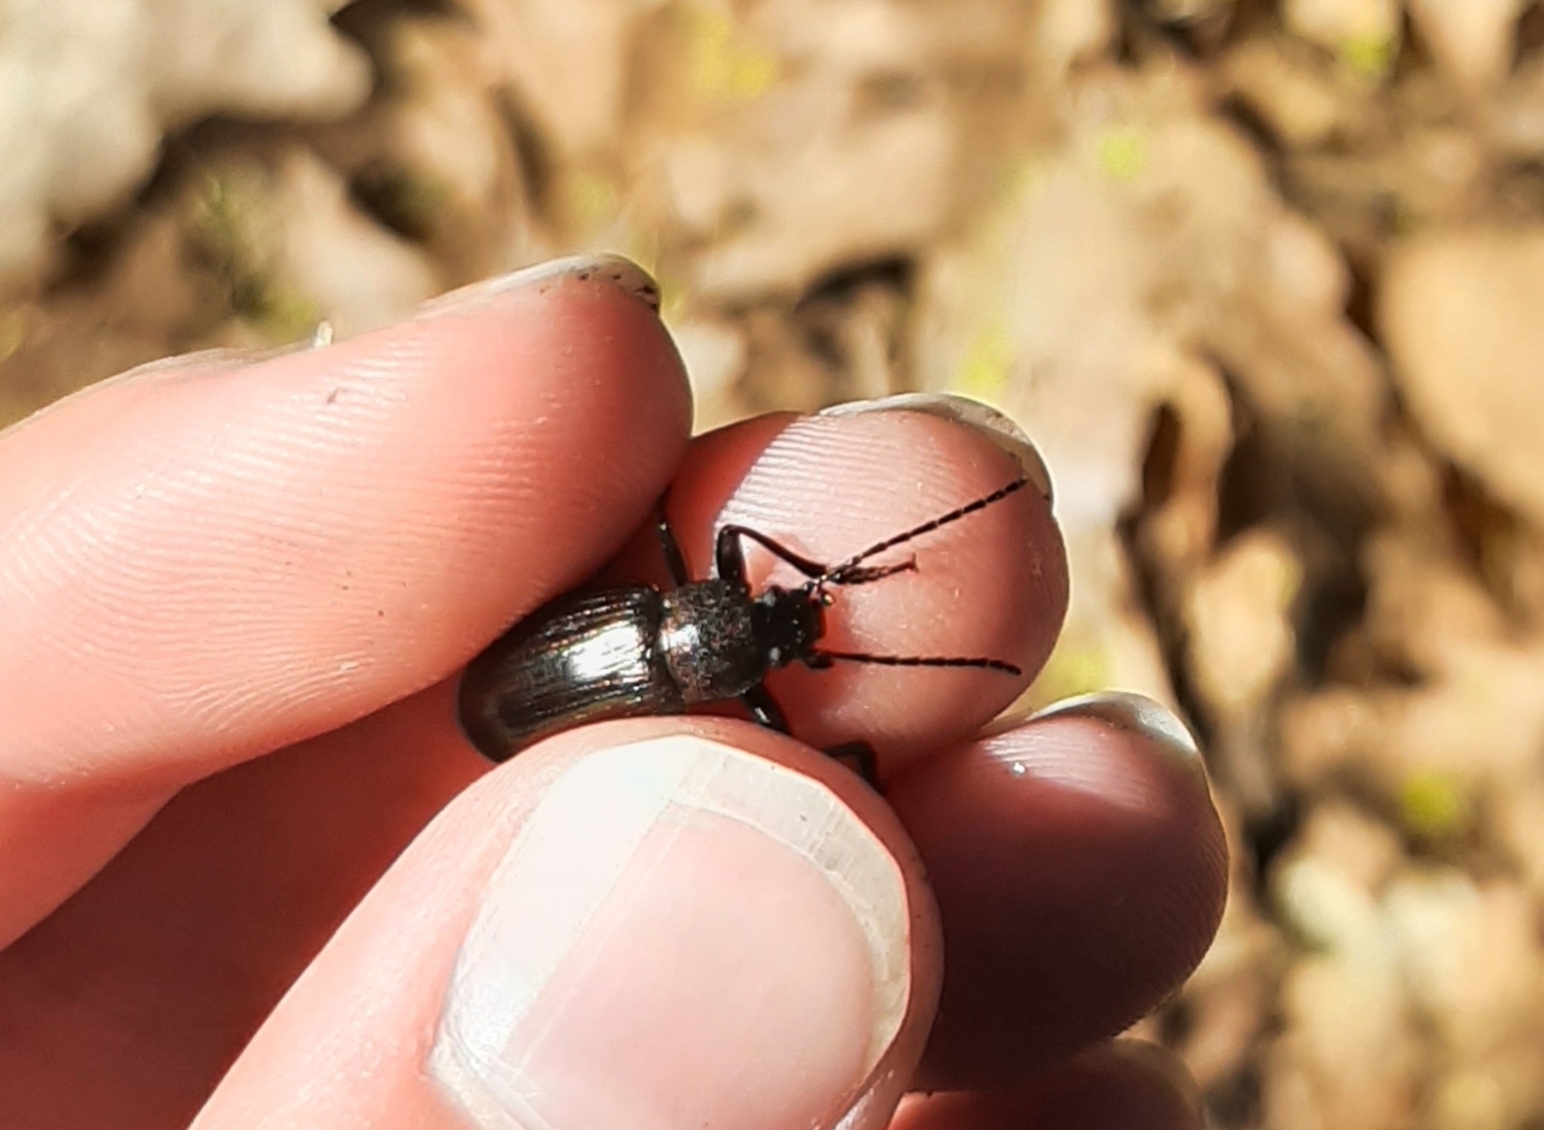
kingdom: Animalia
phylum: Arthropoda
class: Insecta
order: Coleoptera
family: Tenebrionidae
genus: Tarpela
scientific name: Tarpela micans
